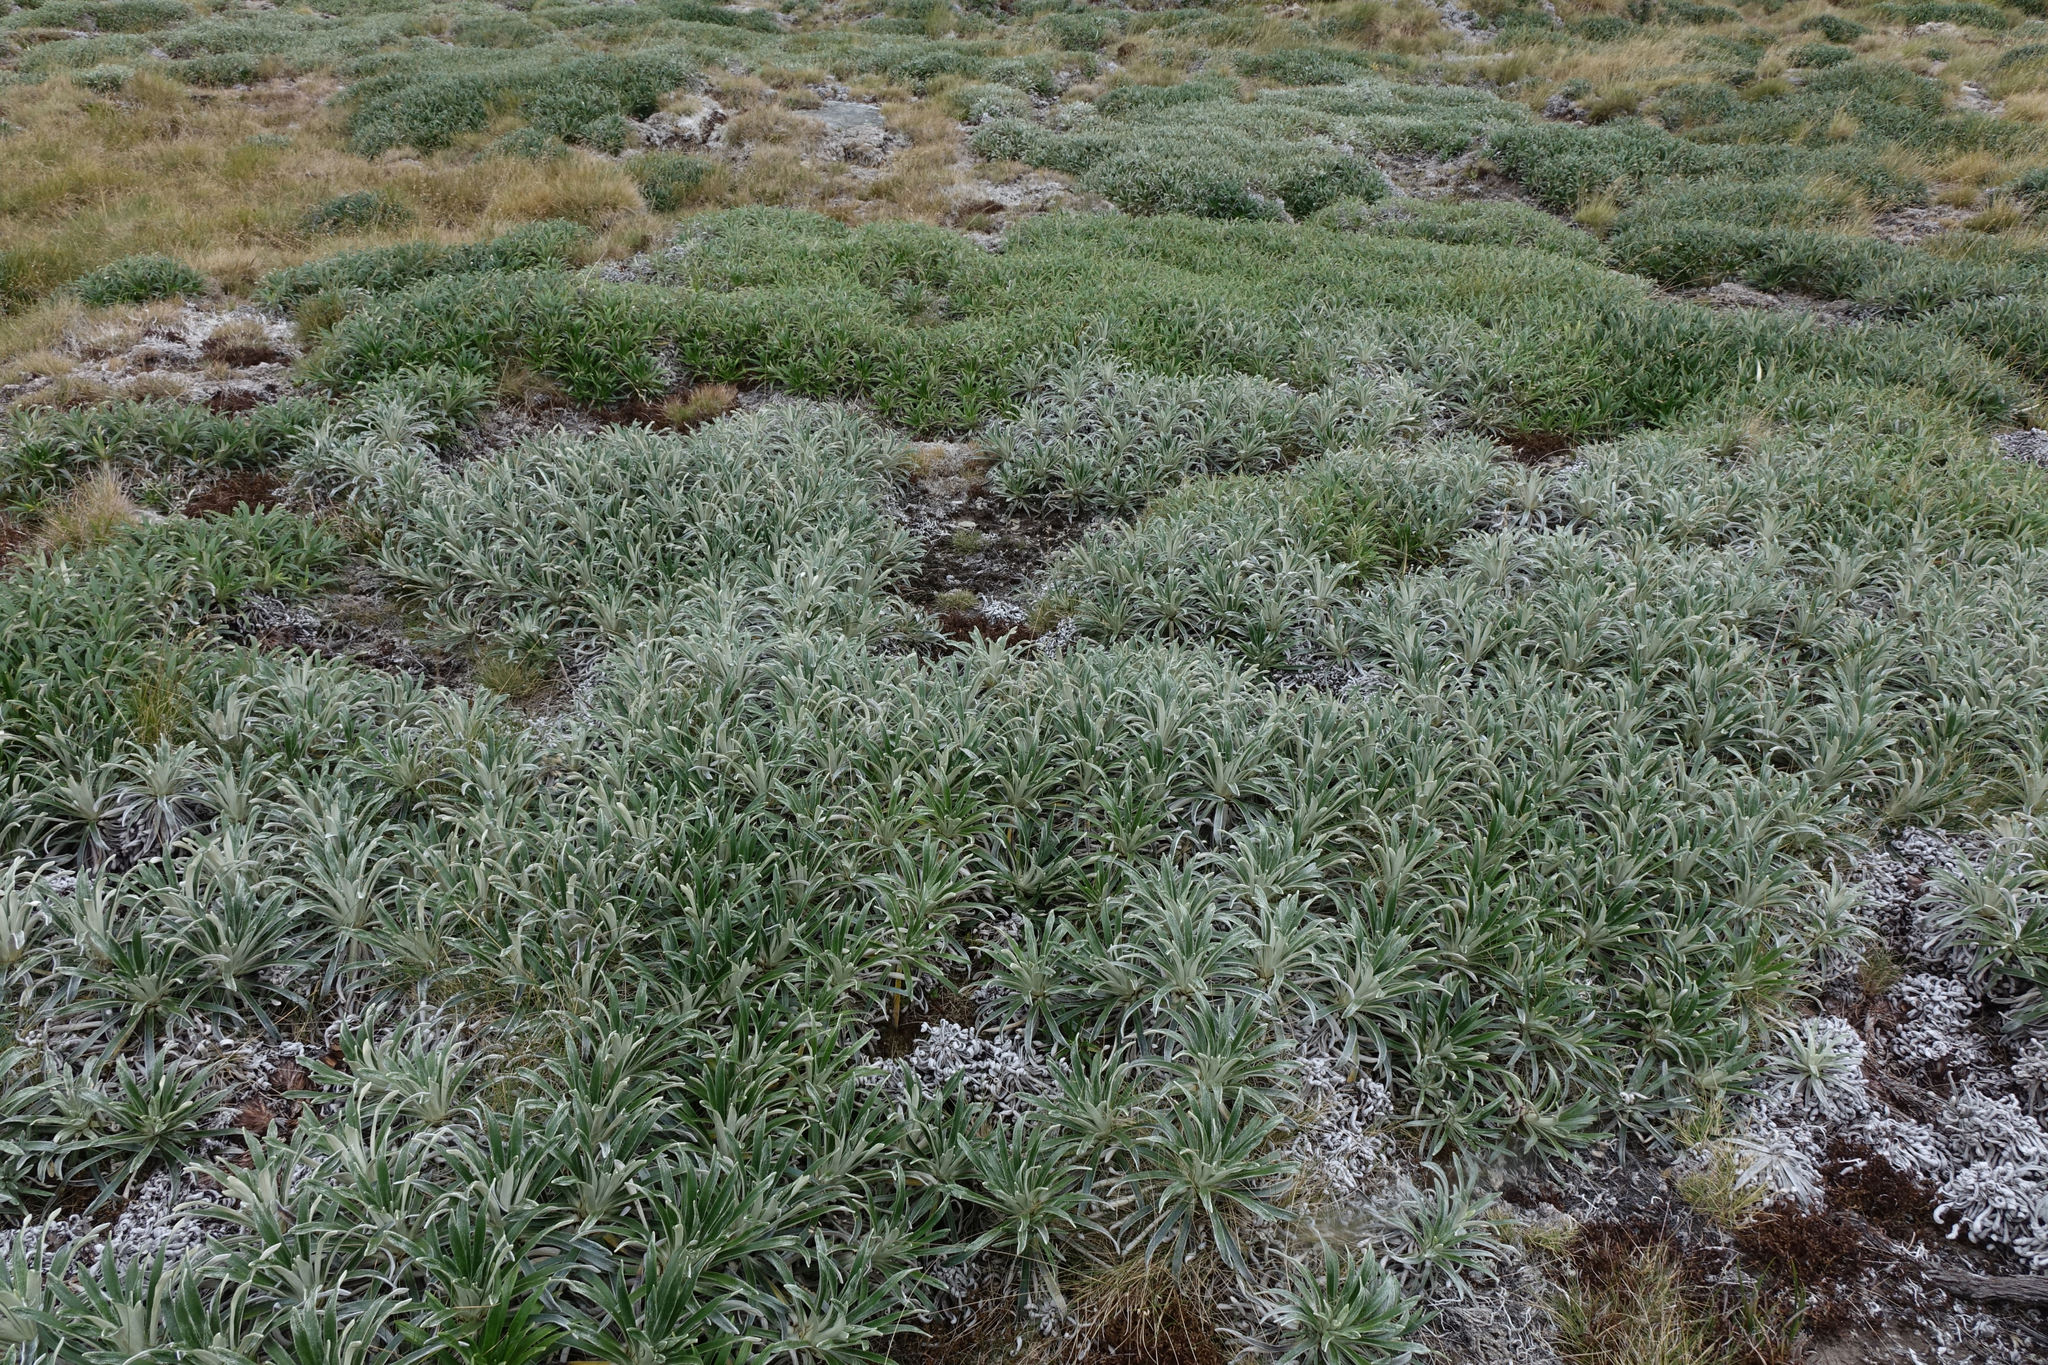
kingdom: Plantae
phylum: Tracheophyta
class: Magnoliopsida
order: Asterales
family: Asteraceae
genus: Celmisia
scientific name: Celmisia viscosa
